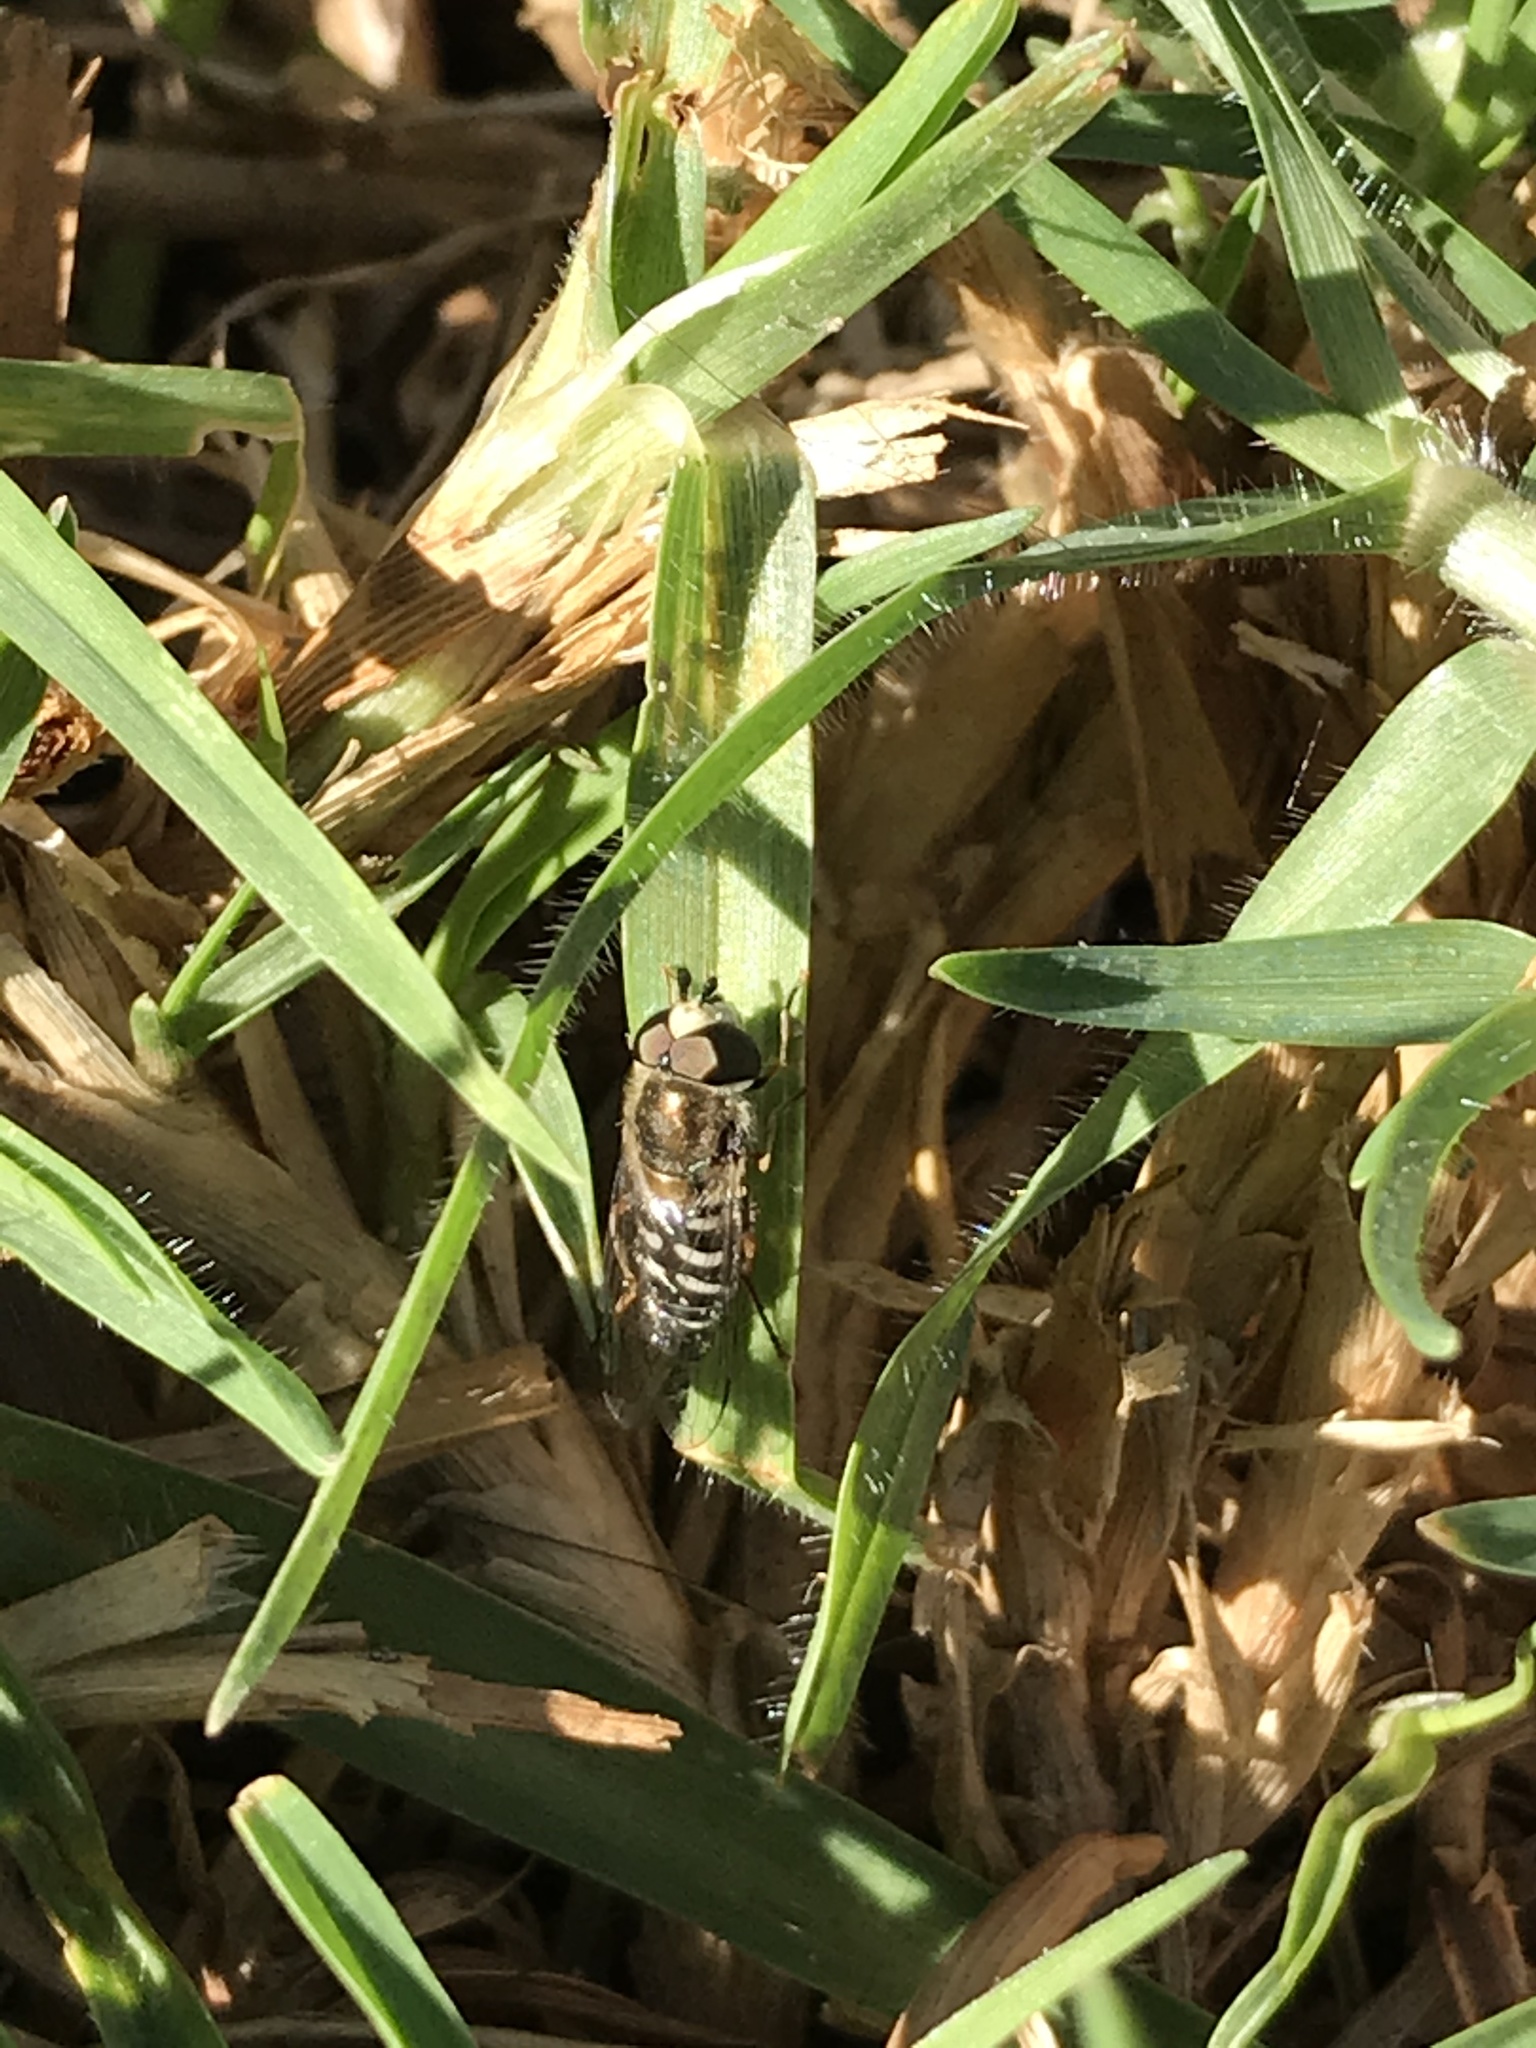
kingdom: Animalia
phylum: Arthropoda
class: Insecta
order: Diptera
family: Syrphidae
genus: Eupeodes
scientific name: Eupeodes volucris
